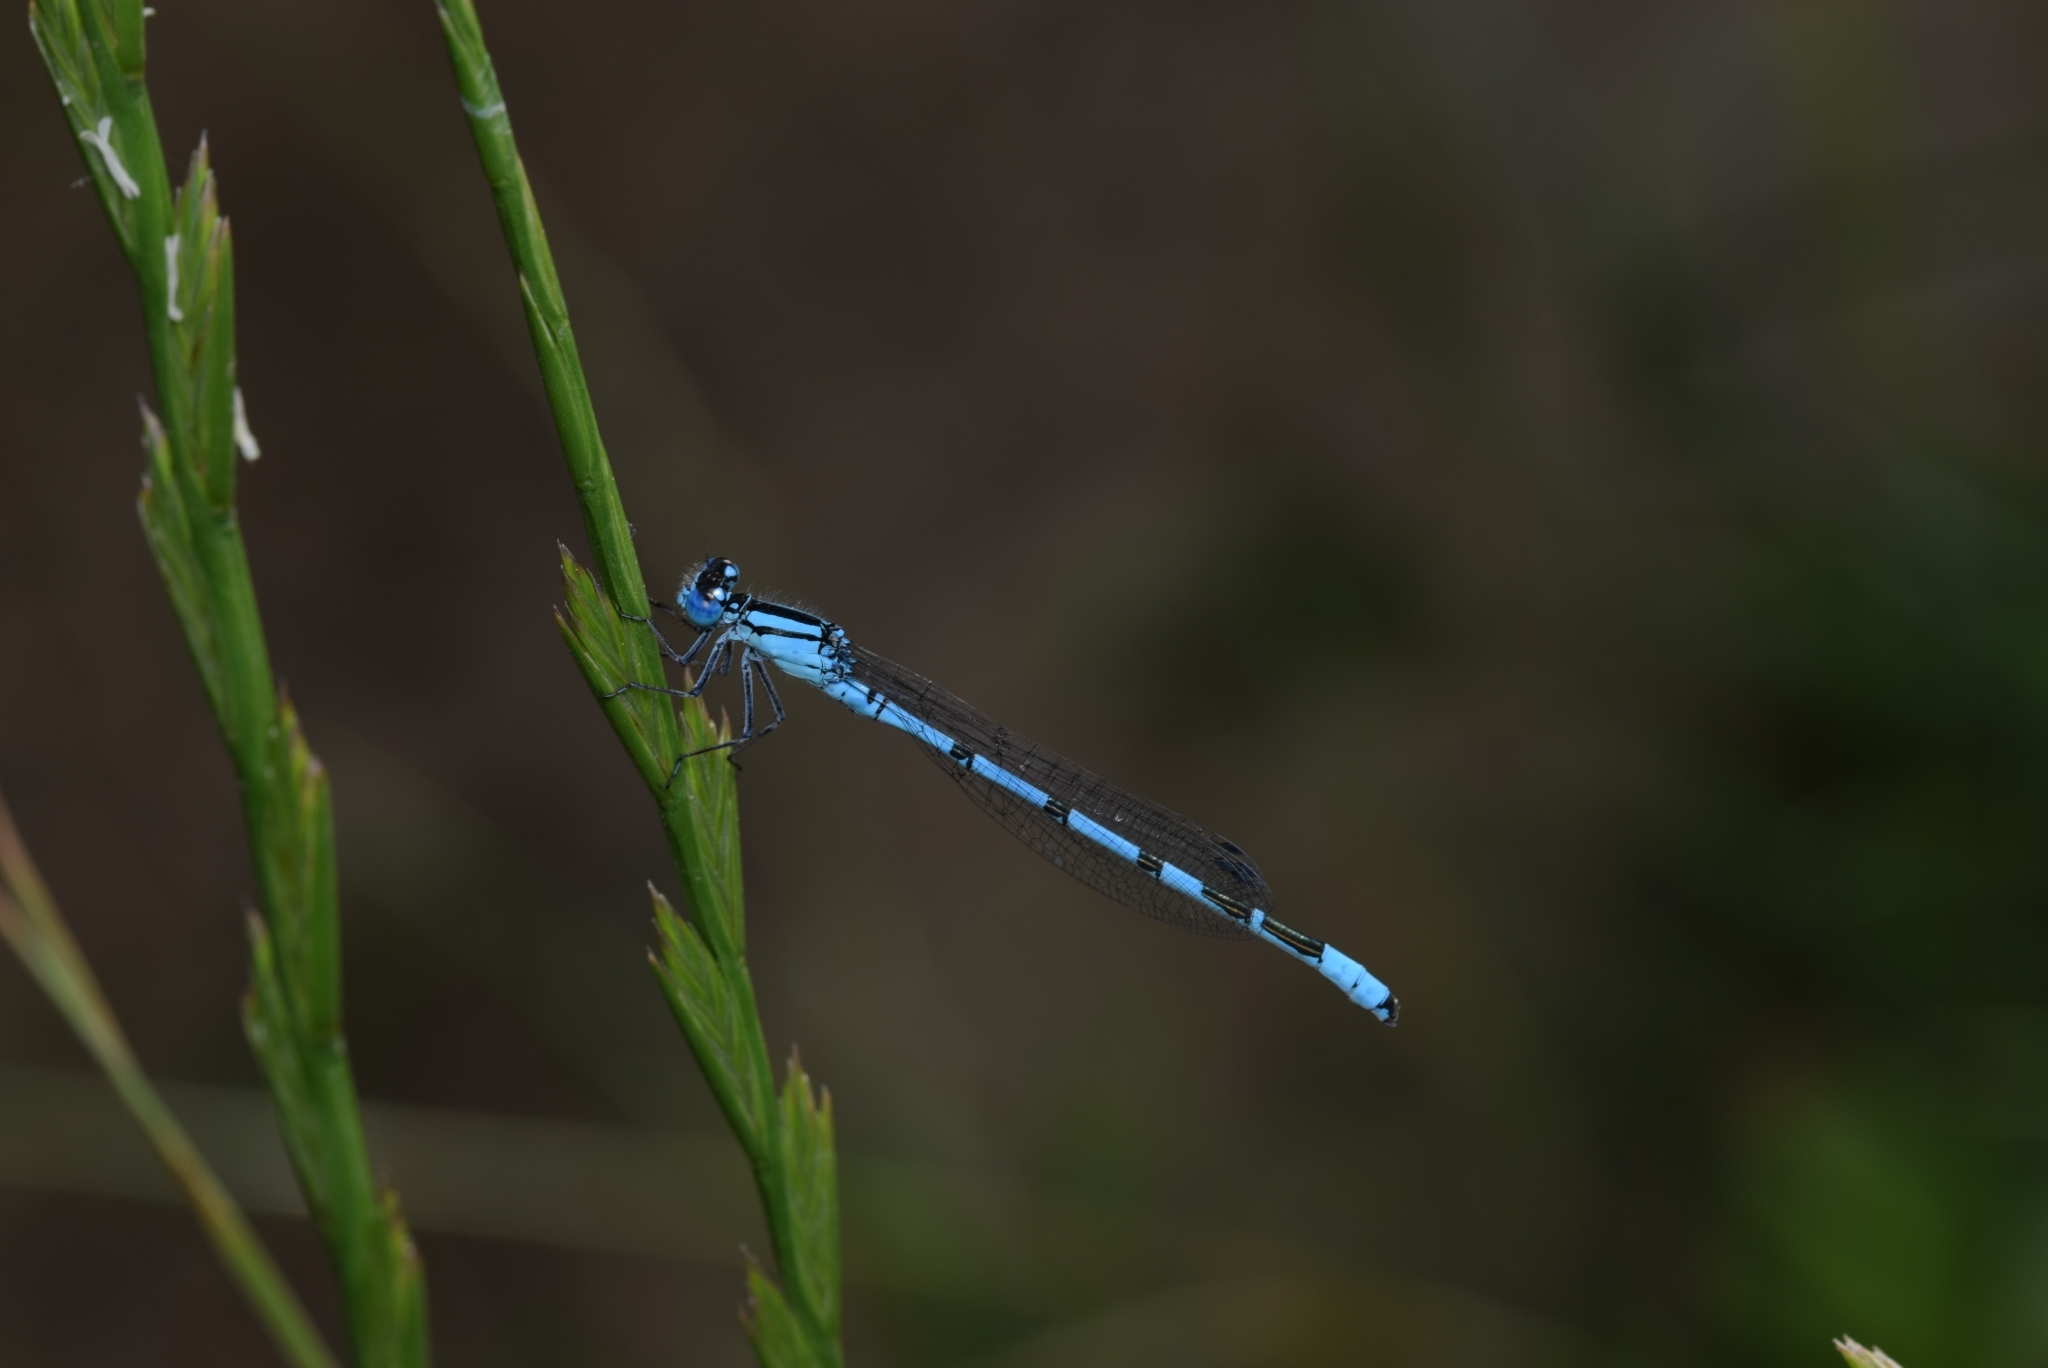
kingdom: Animalia
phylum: Arthropoda
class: Insecta
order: Odonata
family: Coenagrionidae
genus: Enallagma
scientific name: Enallagma cyathigerum
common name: Common blue damselfly
